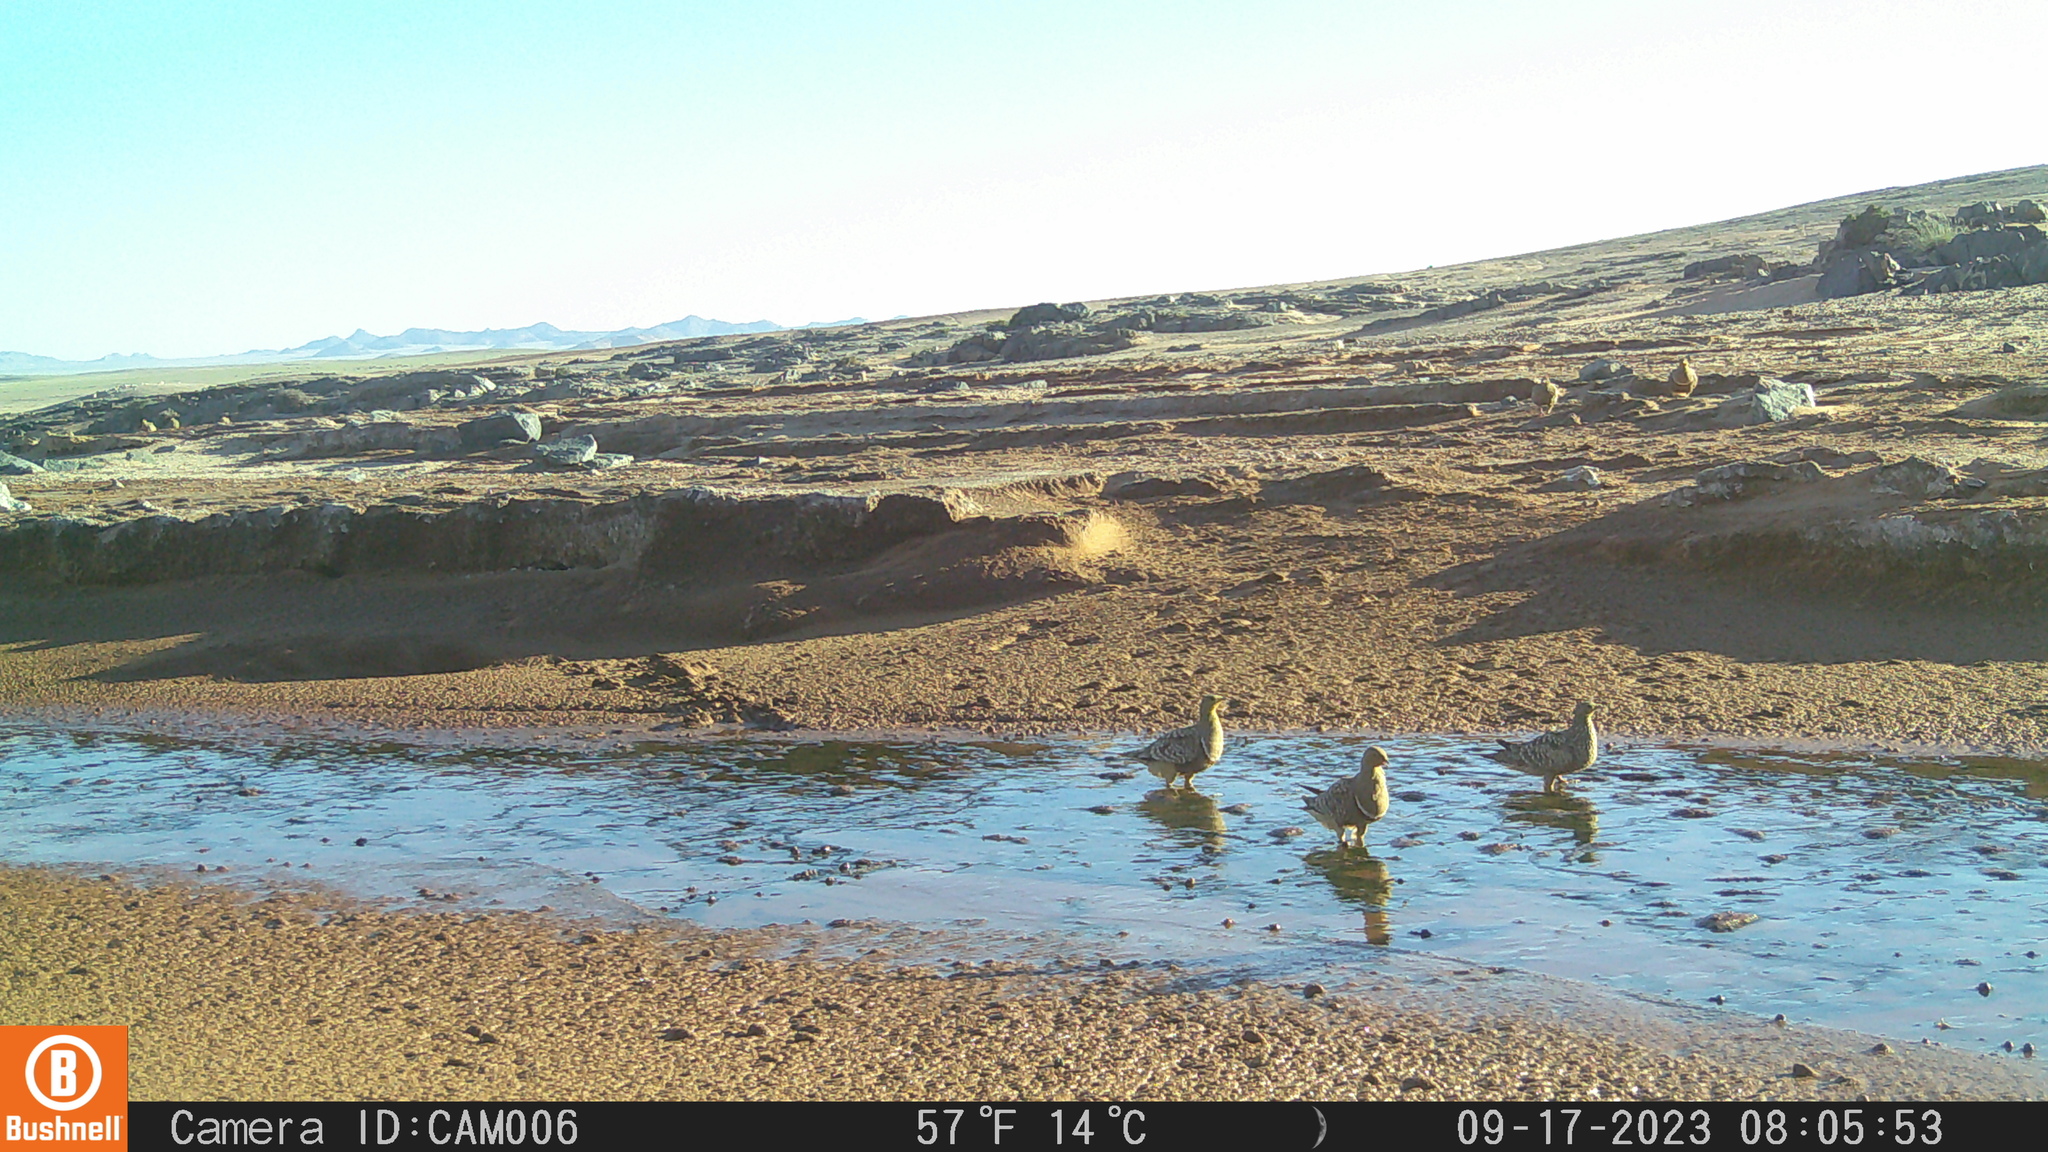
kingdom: Animalia
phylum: Chordata
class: Aves
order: Pteroclidiformes
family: Pteroclididae
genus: Pterocles
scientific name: Pterocles namaqua
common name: Namaqua sandgrouse
